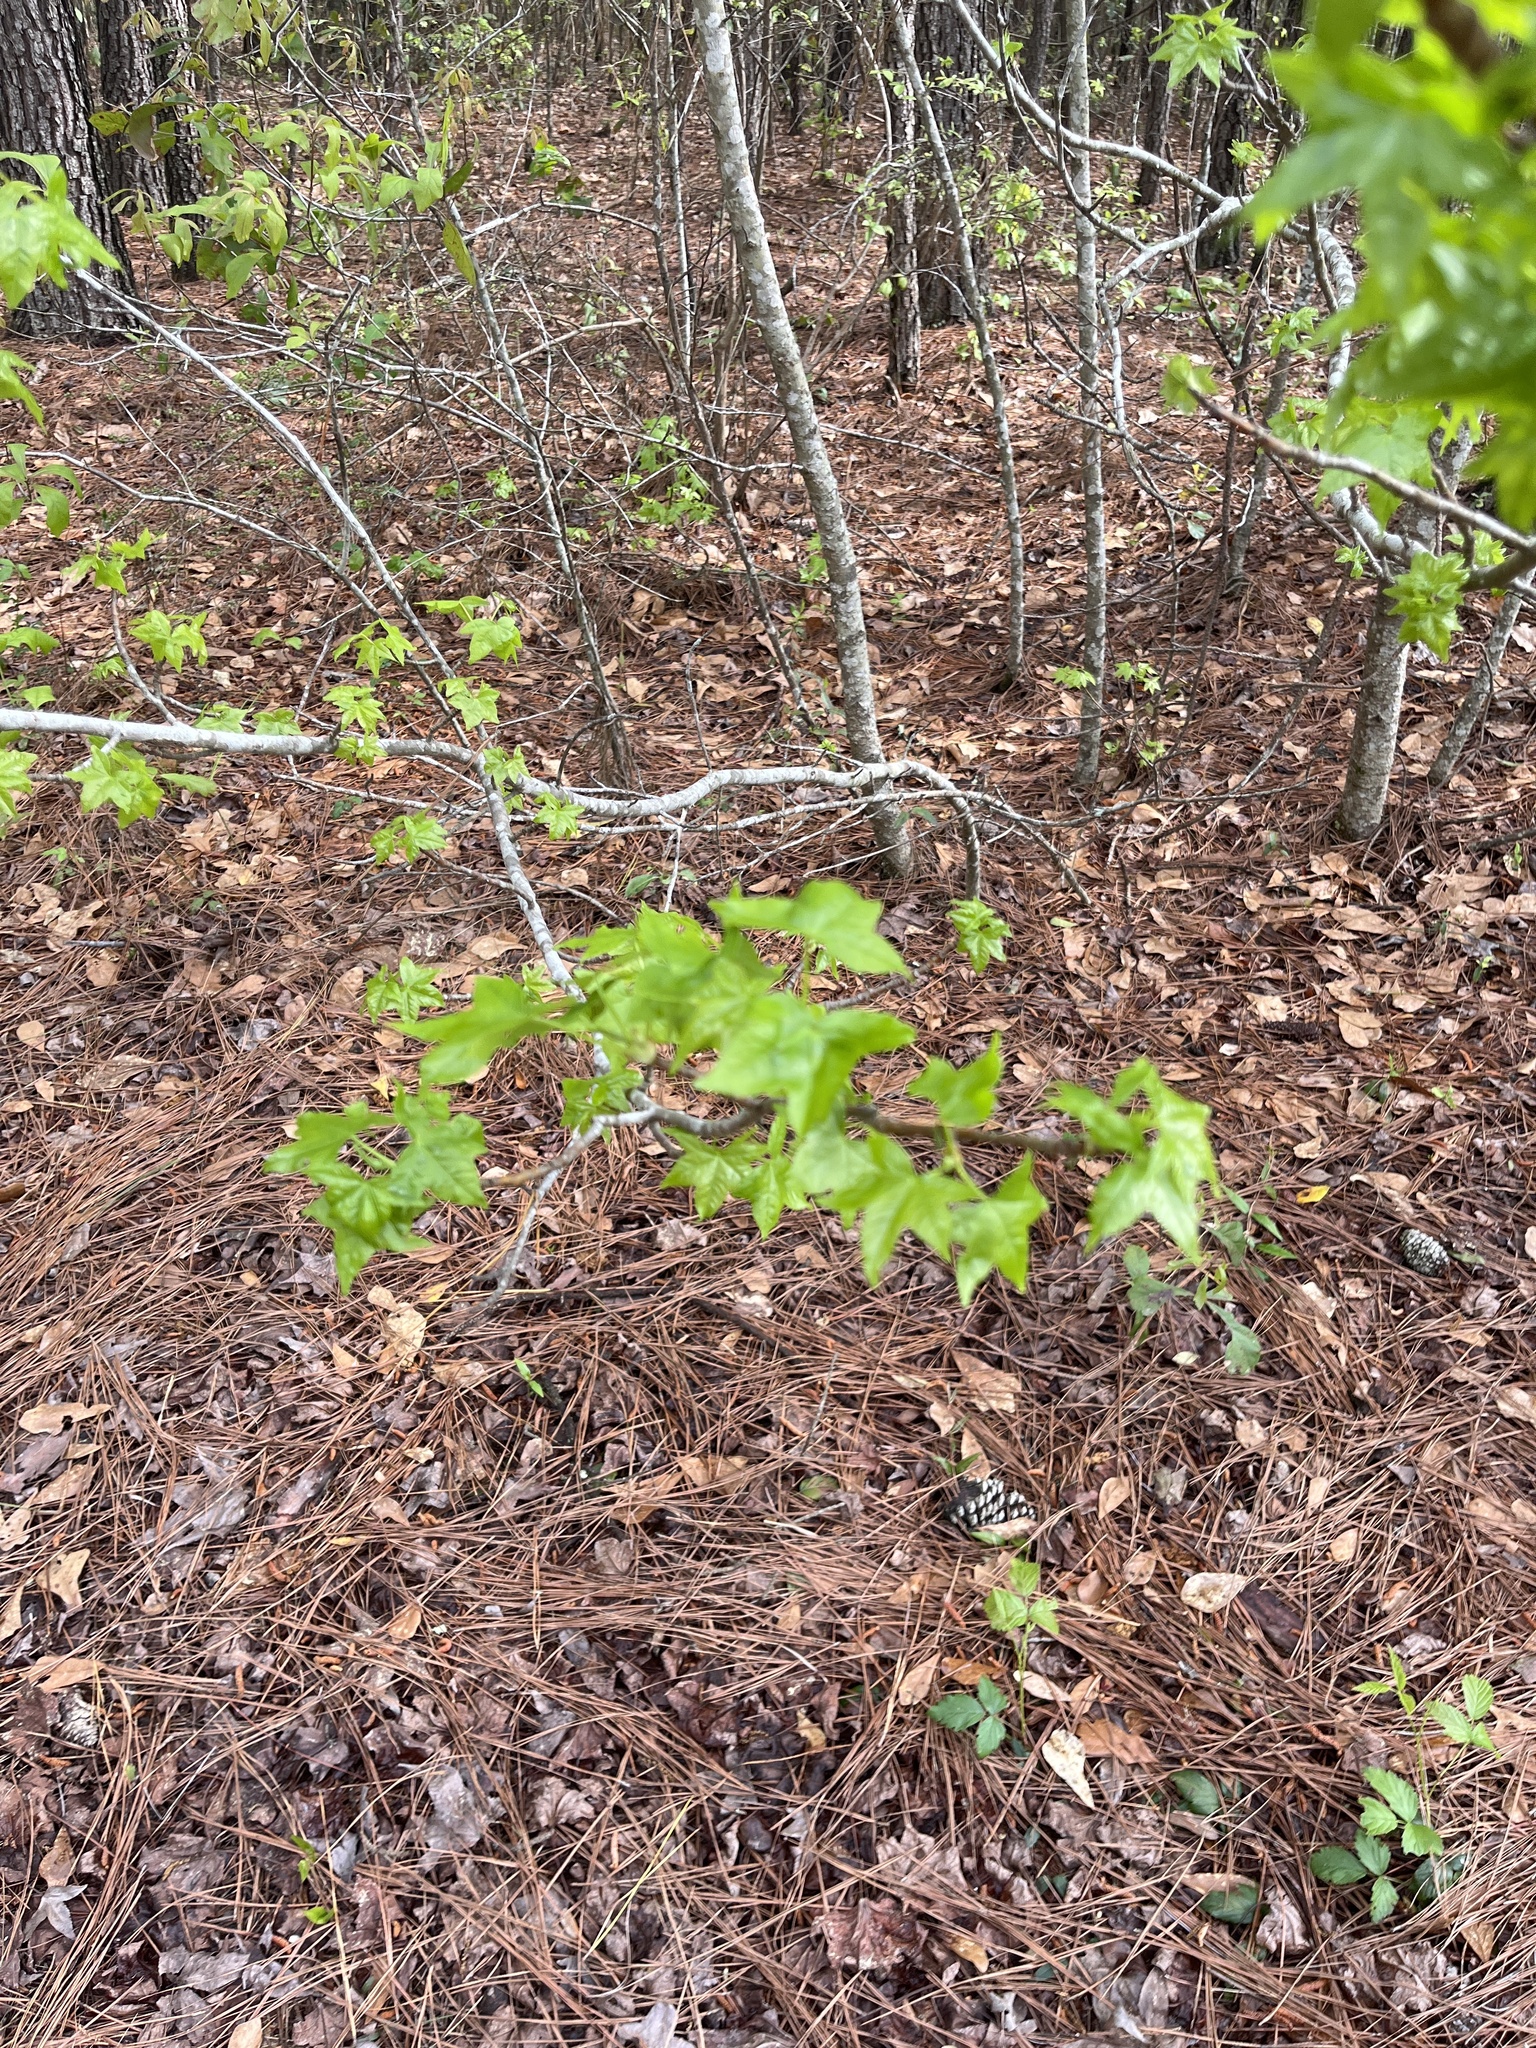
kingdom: Plantae
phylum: Tracheophyta
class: Magnoliopsida
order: Saxifragales
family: Altingiaceae
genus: Liquidambar
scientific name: Liquidambar styraciflua
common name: Sweet gum
